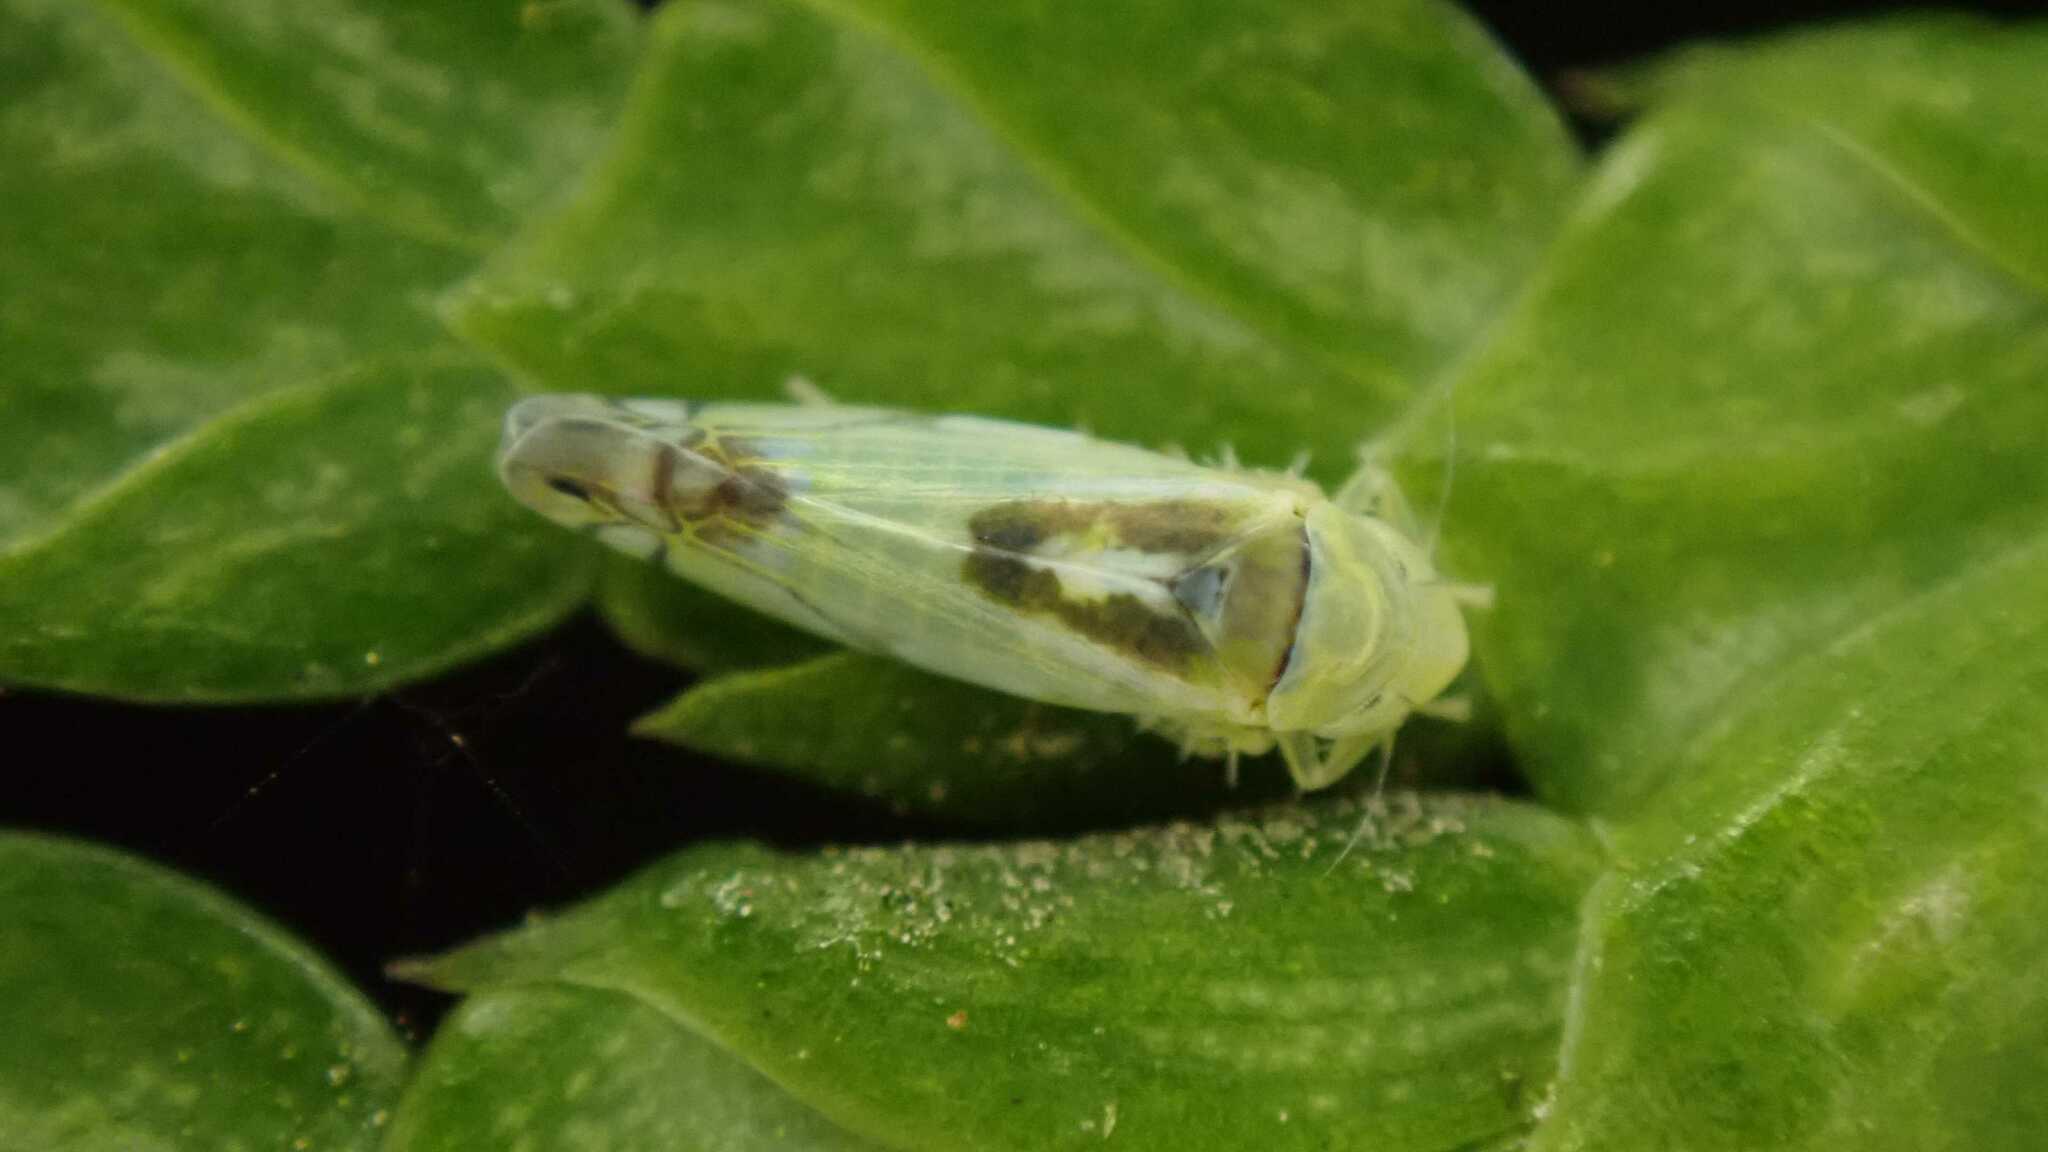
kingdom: Animalia
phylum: Arthropoda
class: Insecta
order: Hemiptera
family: Cicadellidae
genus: Zyginella
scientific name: Zyginella pulchra
